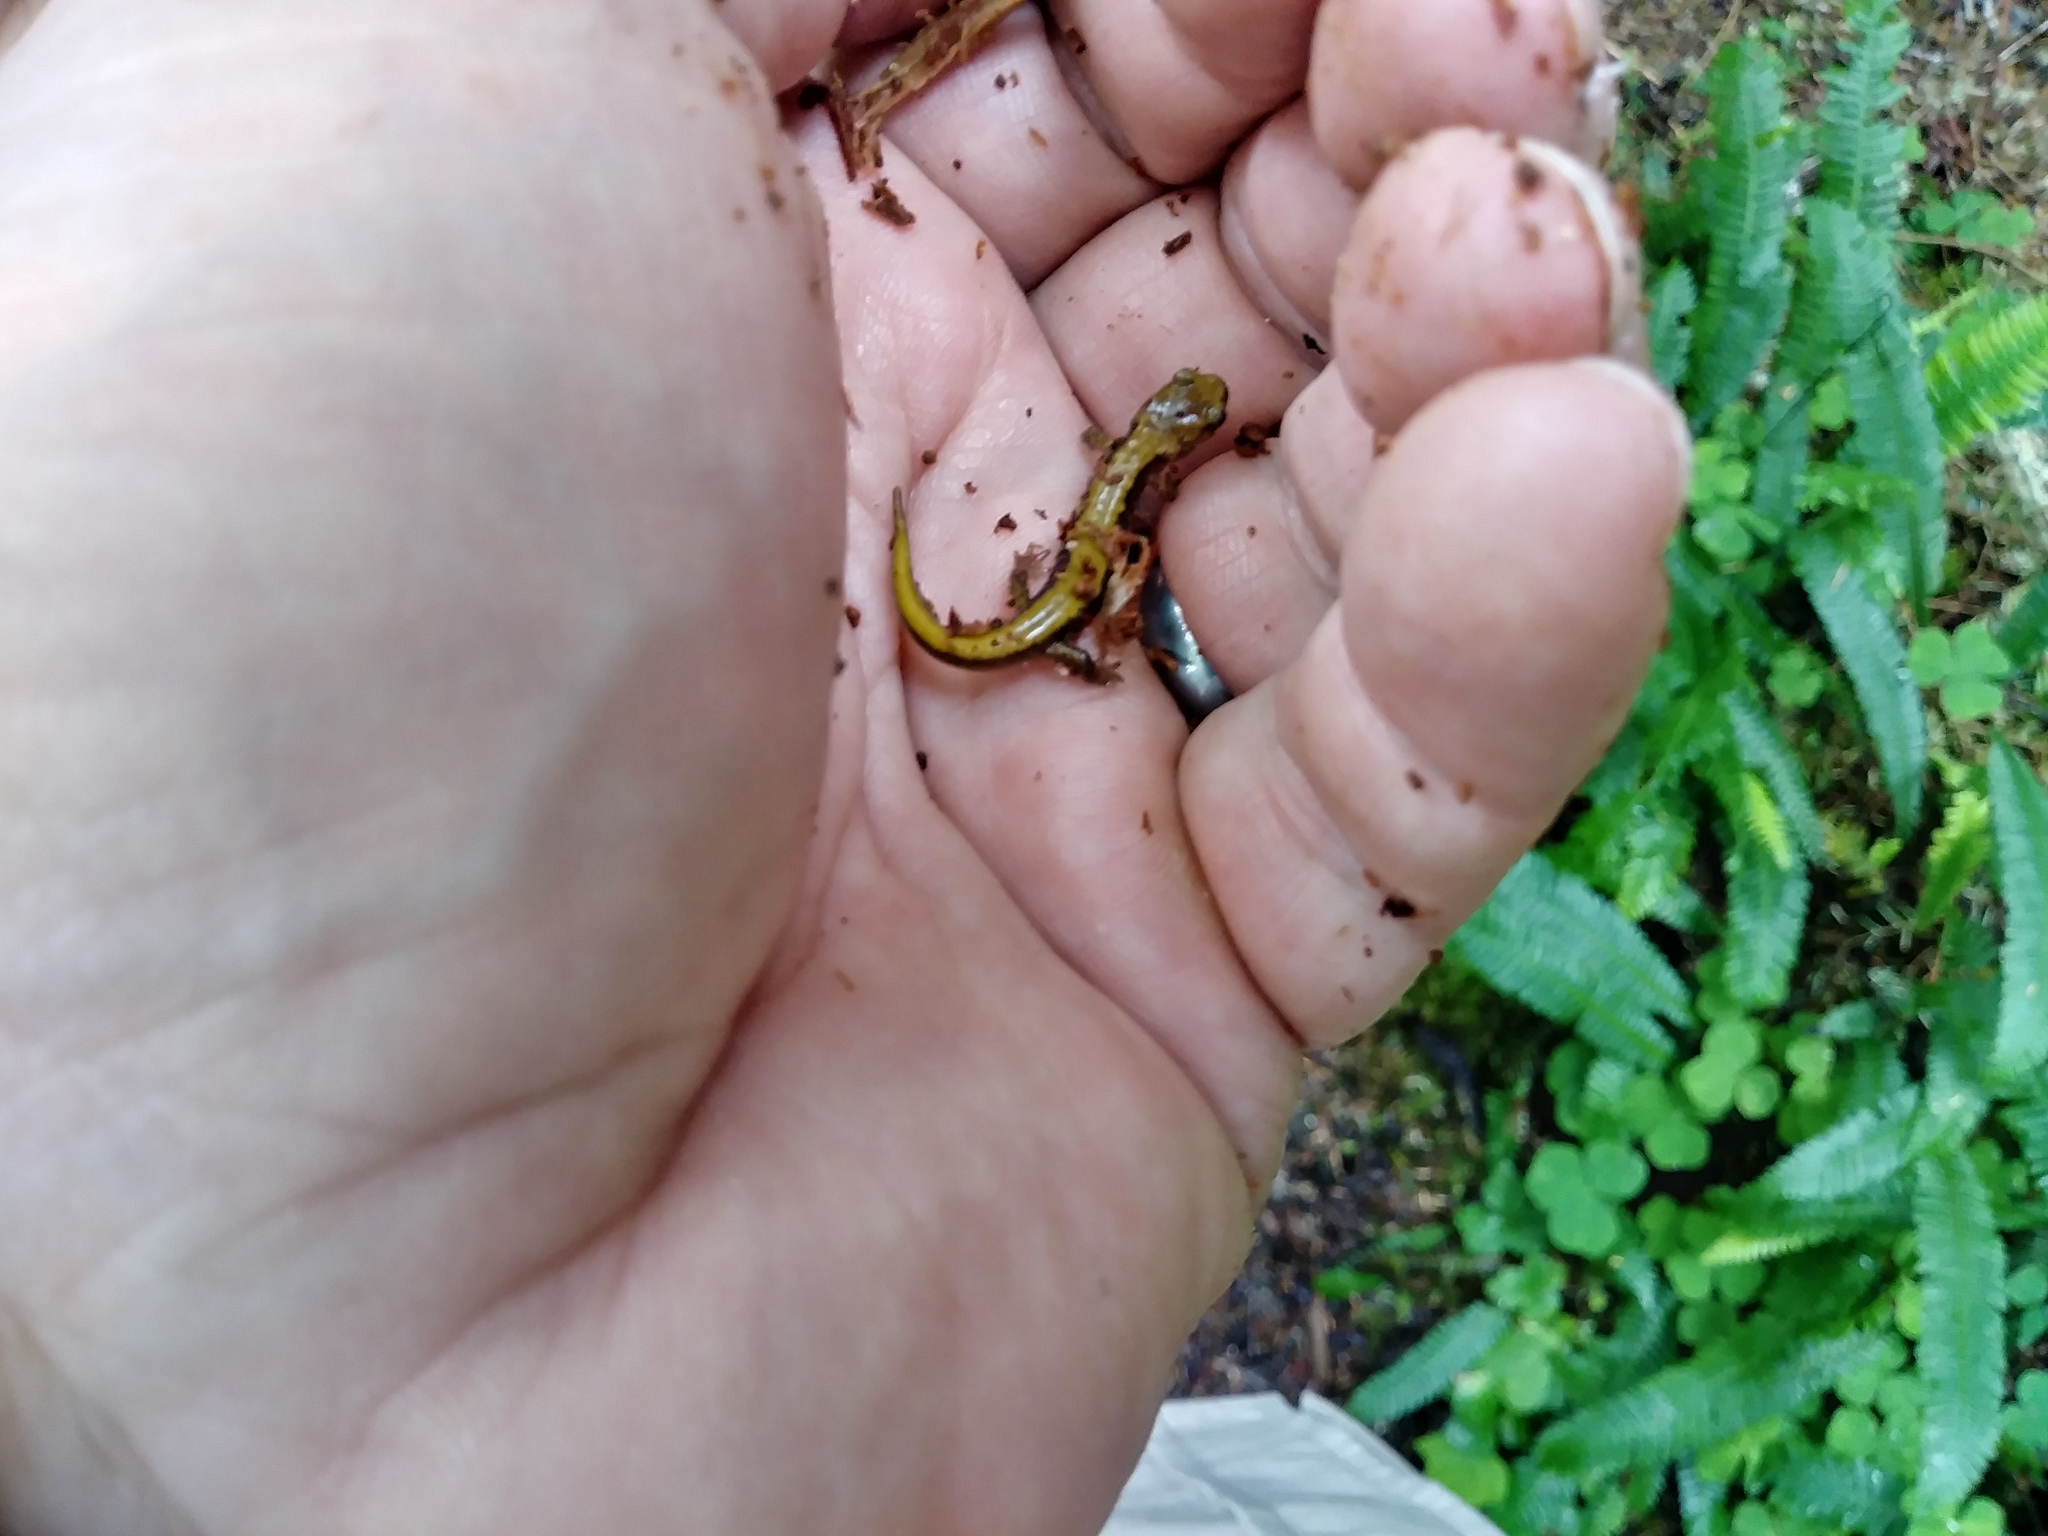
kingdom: Animalia
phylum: Chordata
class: Amphibia
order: Caudata
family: Plethodontidae
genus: Plethodon
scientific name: Plethodon vandykei
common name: Van dyke's salamander
